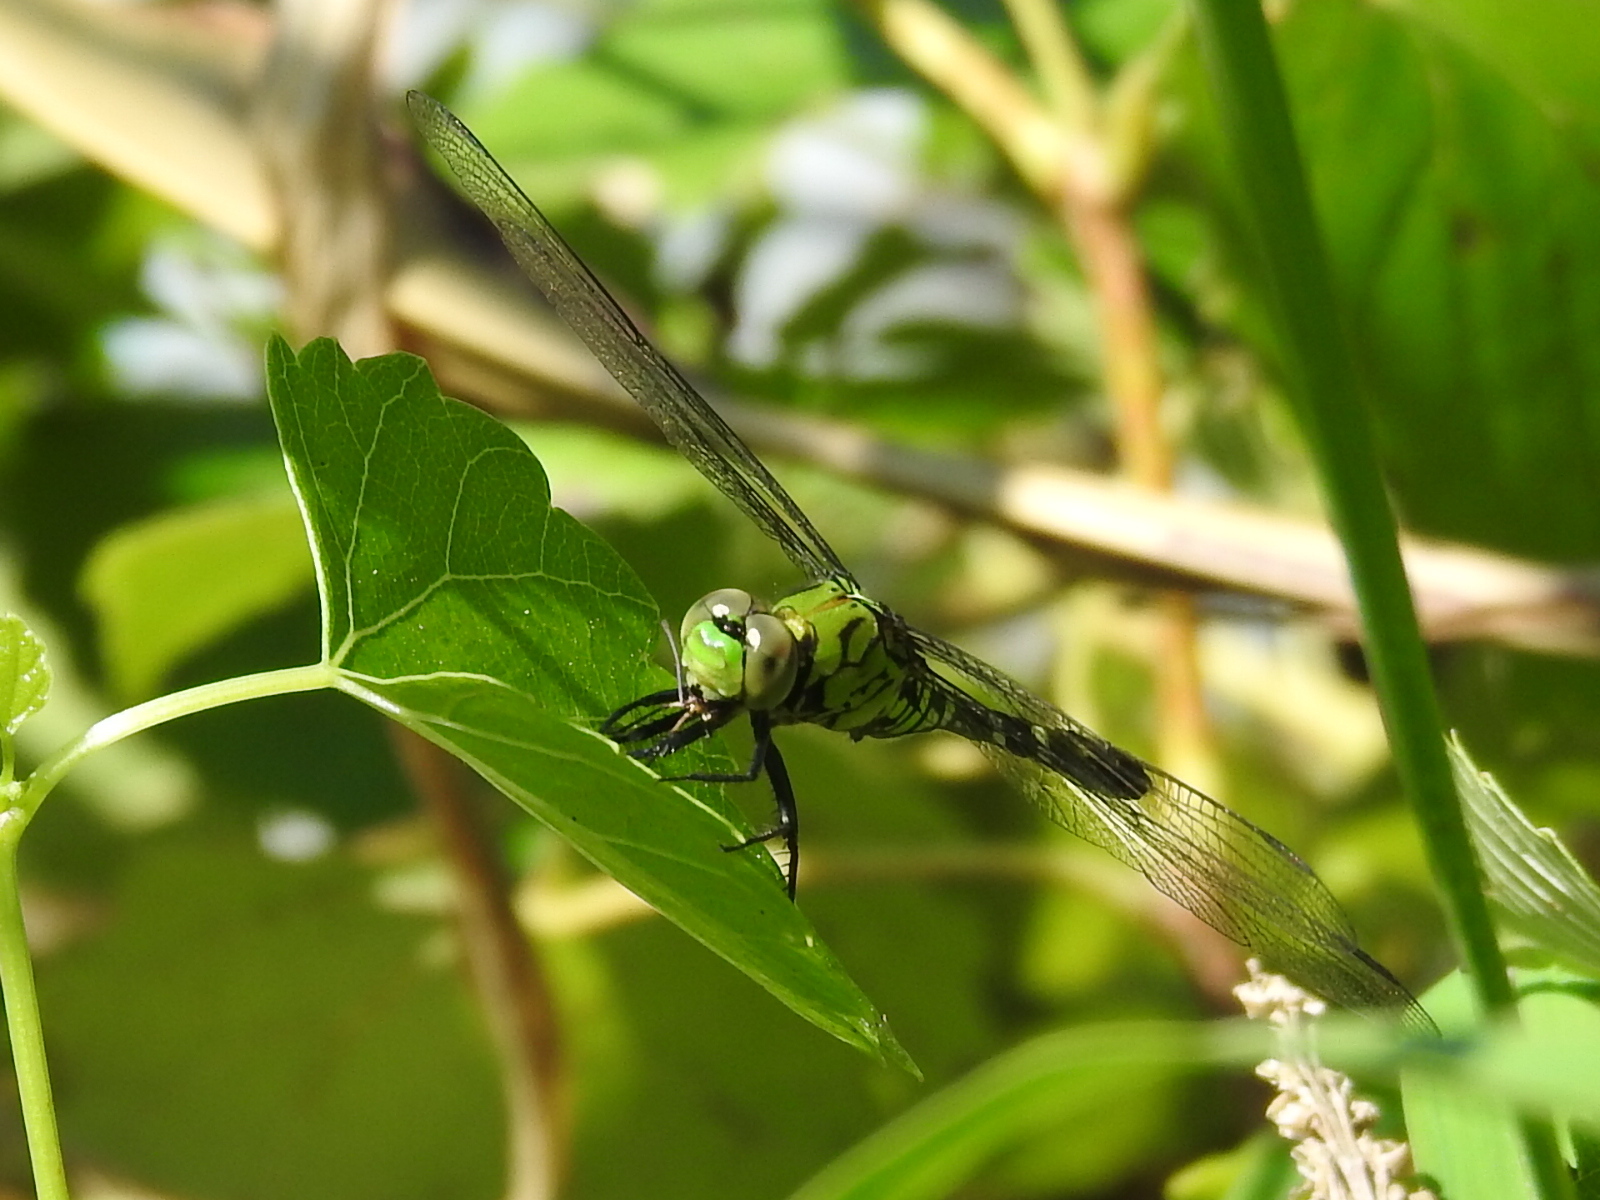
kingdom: Animalia
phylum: Arthropoda
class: Insecta
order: Odonata
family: Libellulidae
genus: Erythemis
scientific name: Erythemis simplicicollis
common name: Eastern pondhawk
